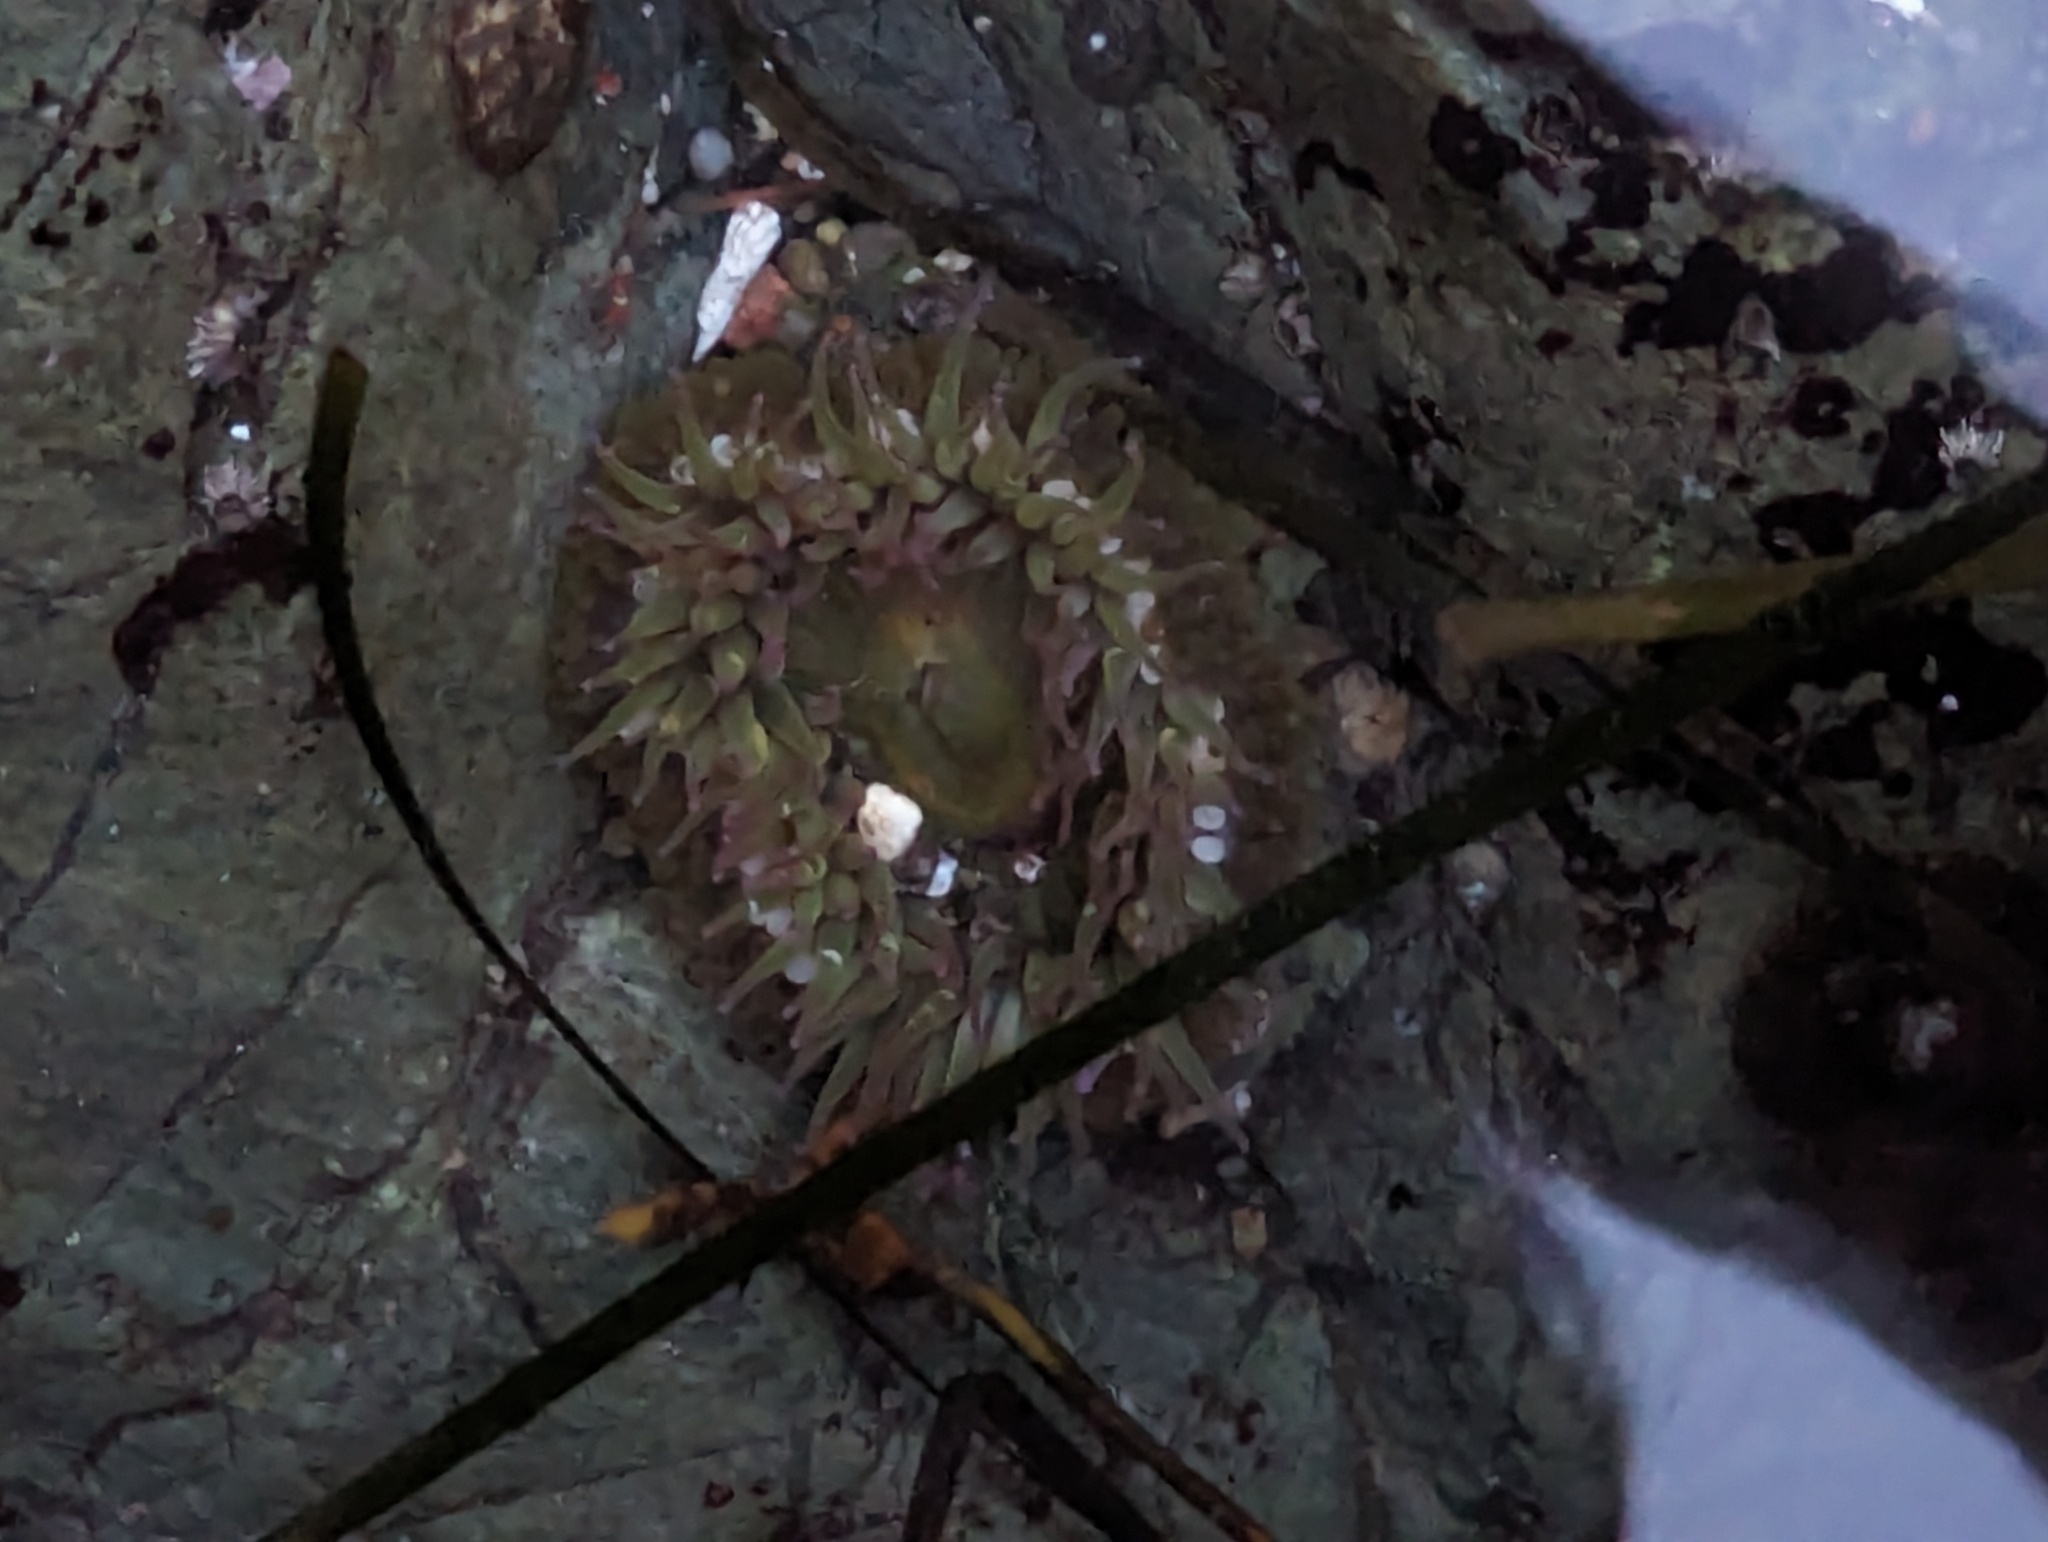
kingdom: Animalia
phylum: Cnidaria
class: Anthozoa
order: Actiniaria
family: Actiniidae
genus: Anthopleura
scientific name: Anthopleura elegantissima
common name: Clonal anemone
